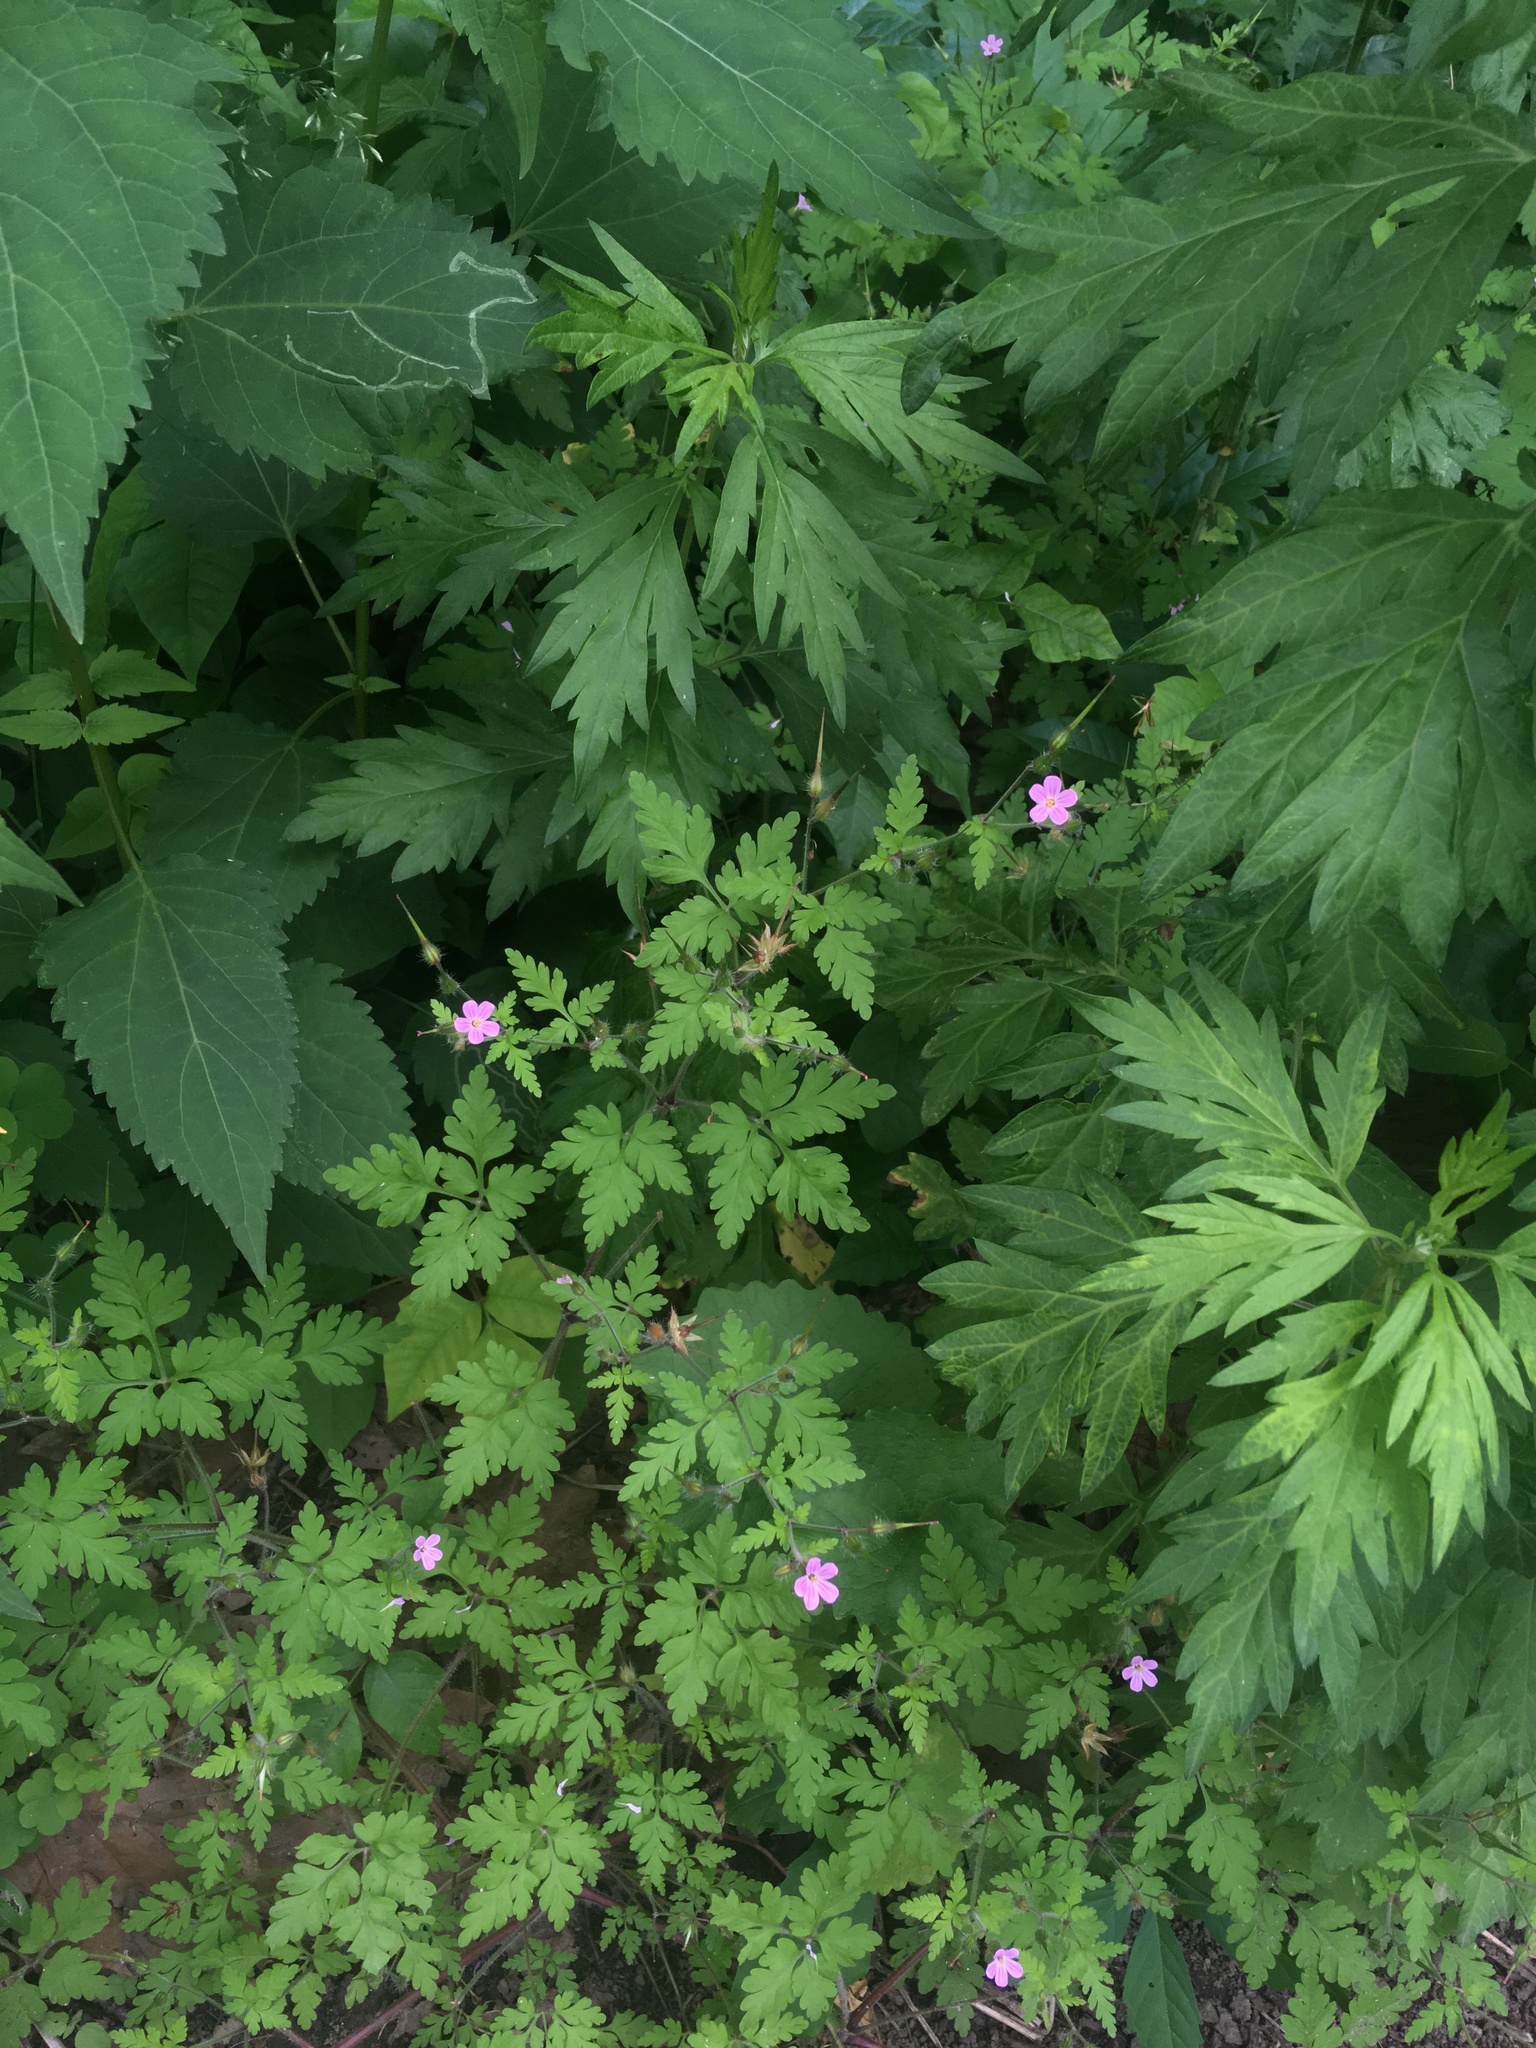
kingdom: Plantae
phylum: Tracheophyta
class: Magnoliopsida
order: Geraniales
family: Geraniaceae
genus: Geranium
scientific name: Geranium robertianum
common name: Herb-robert
